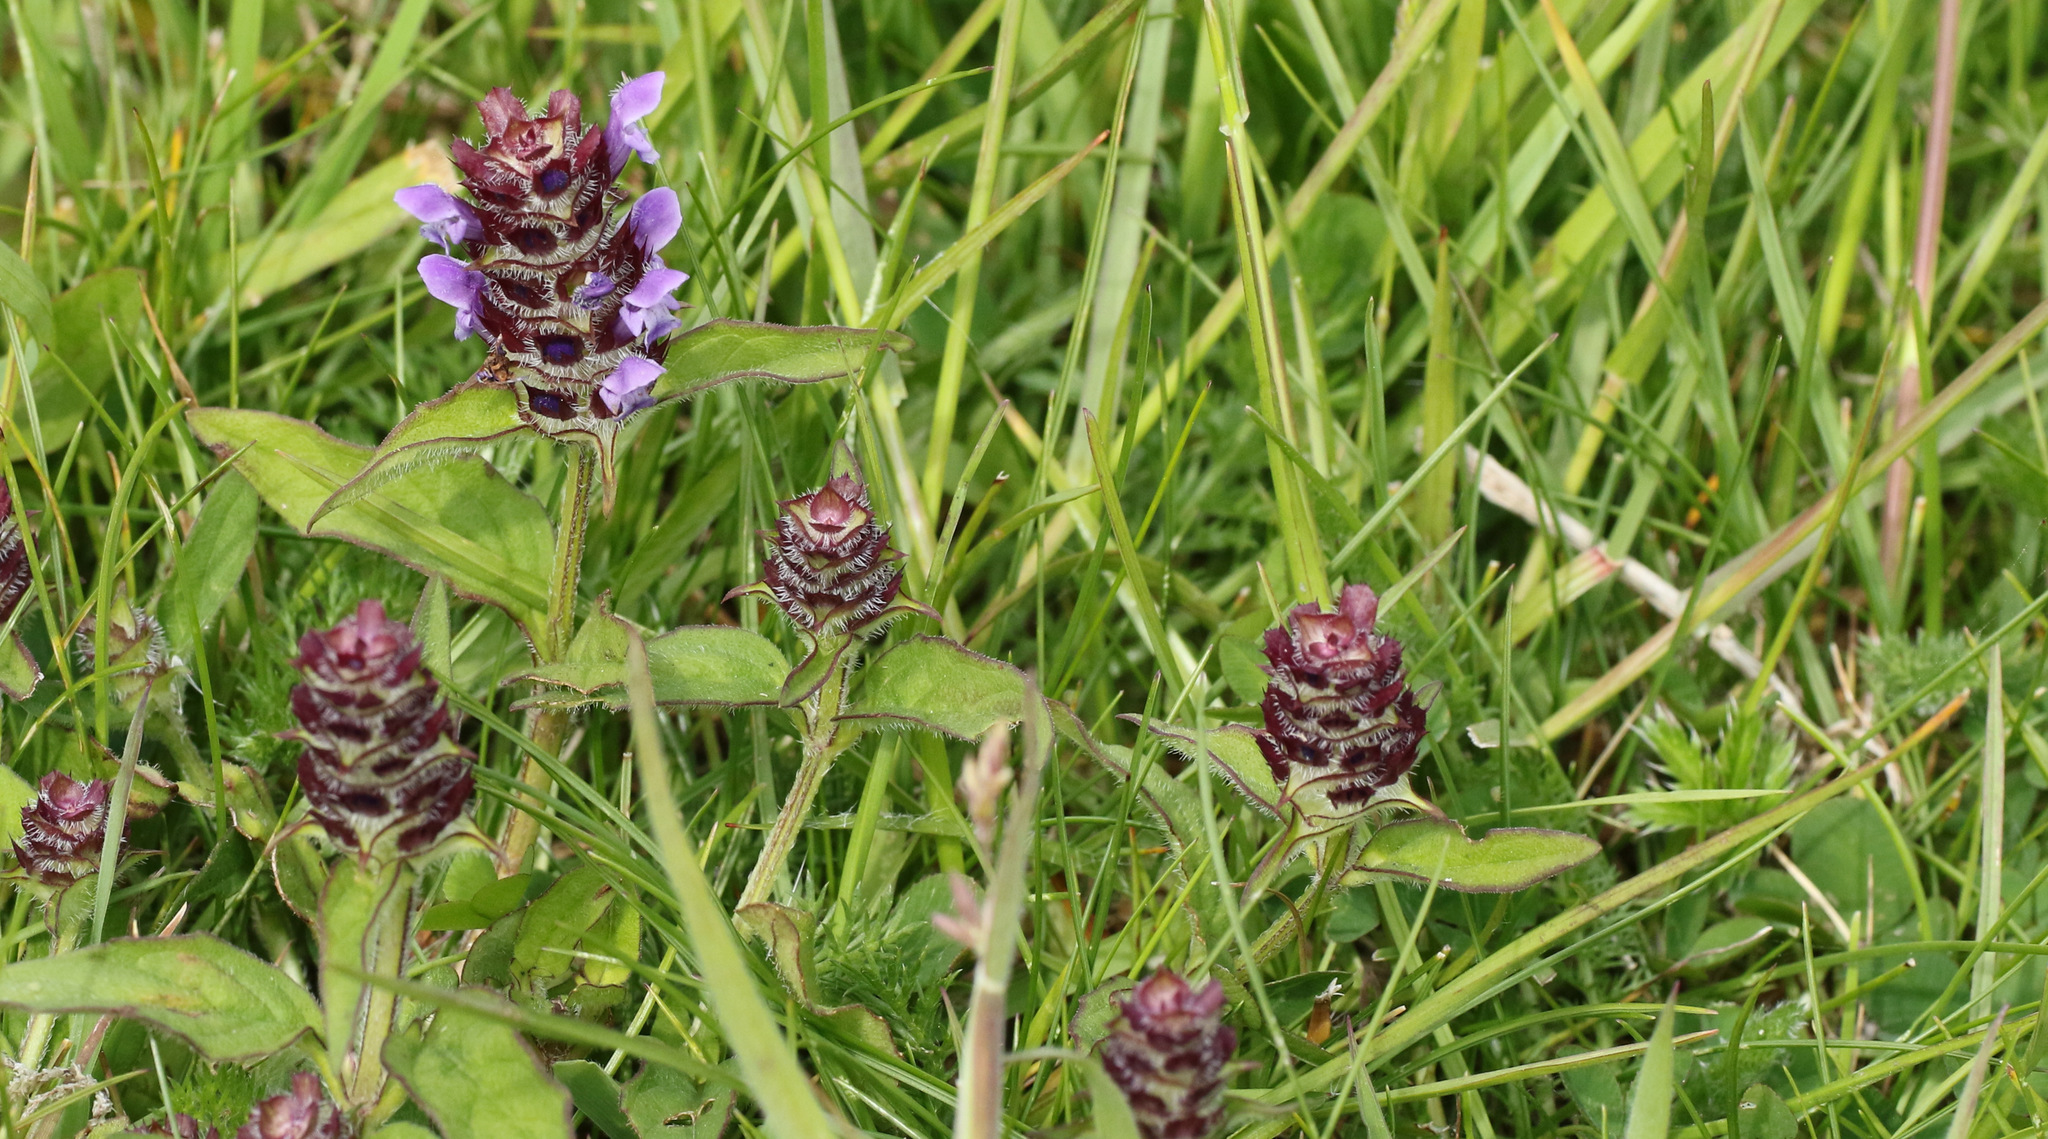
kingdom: Plantae
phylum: Tracheophyta
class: Magnoliopsida
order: Lamiales
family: Lamiaceae
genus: Prunella
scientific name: Prunella vulgaris
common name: Heal-all
